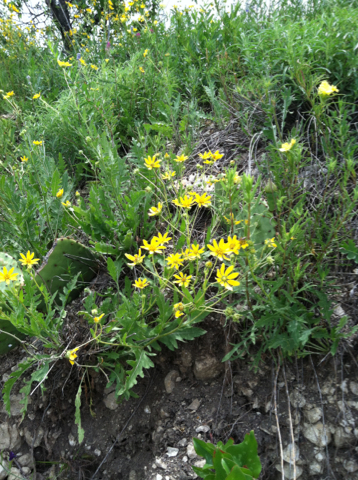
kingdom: Plantae
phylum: Tracheophyta
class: Magnoliopsida
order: Asterales
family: Asteraceae
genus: Engelmannia
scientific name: Engelmannia peristenia
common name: Engelmann's daisy
